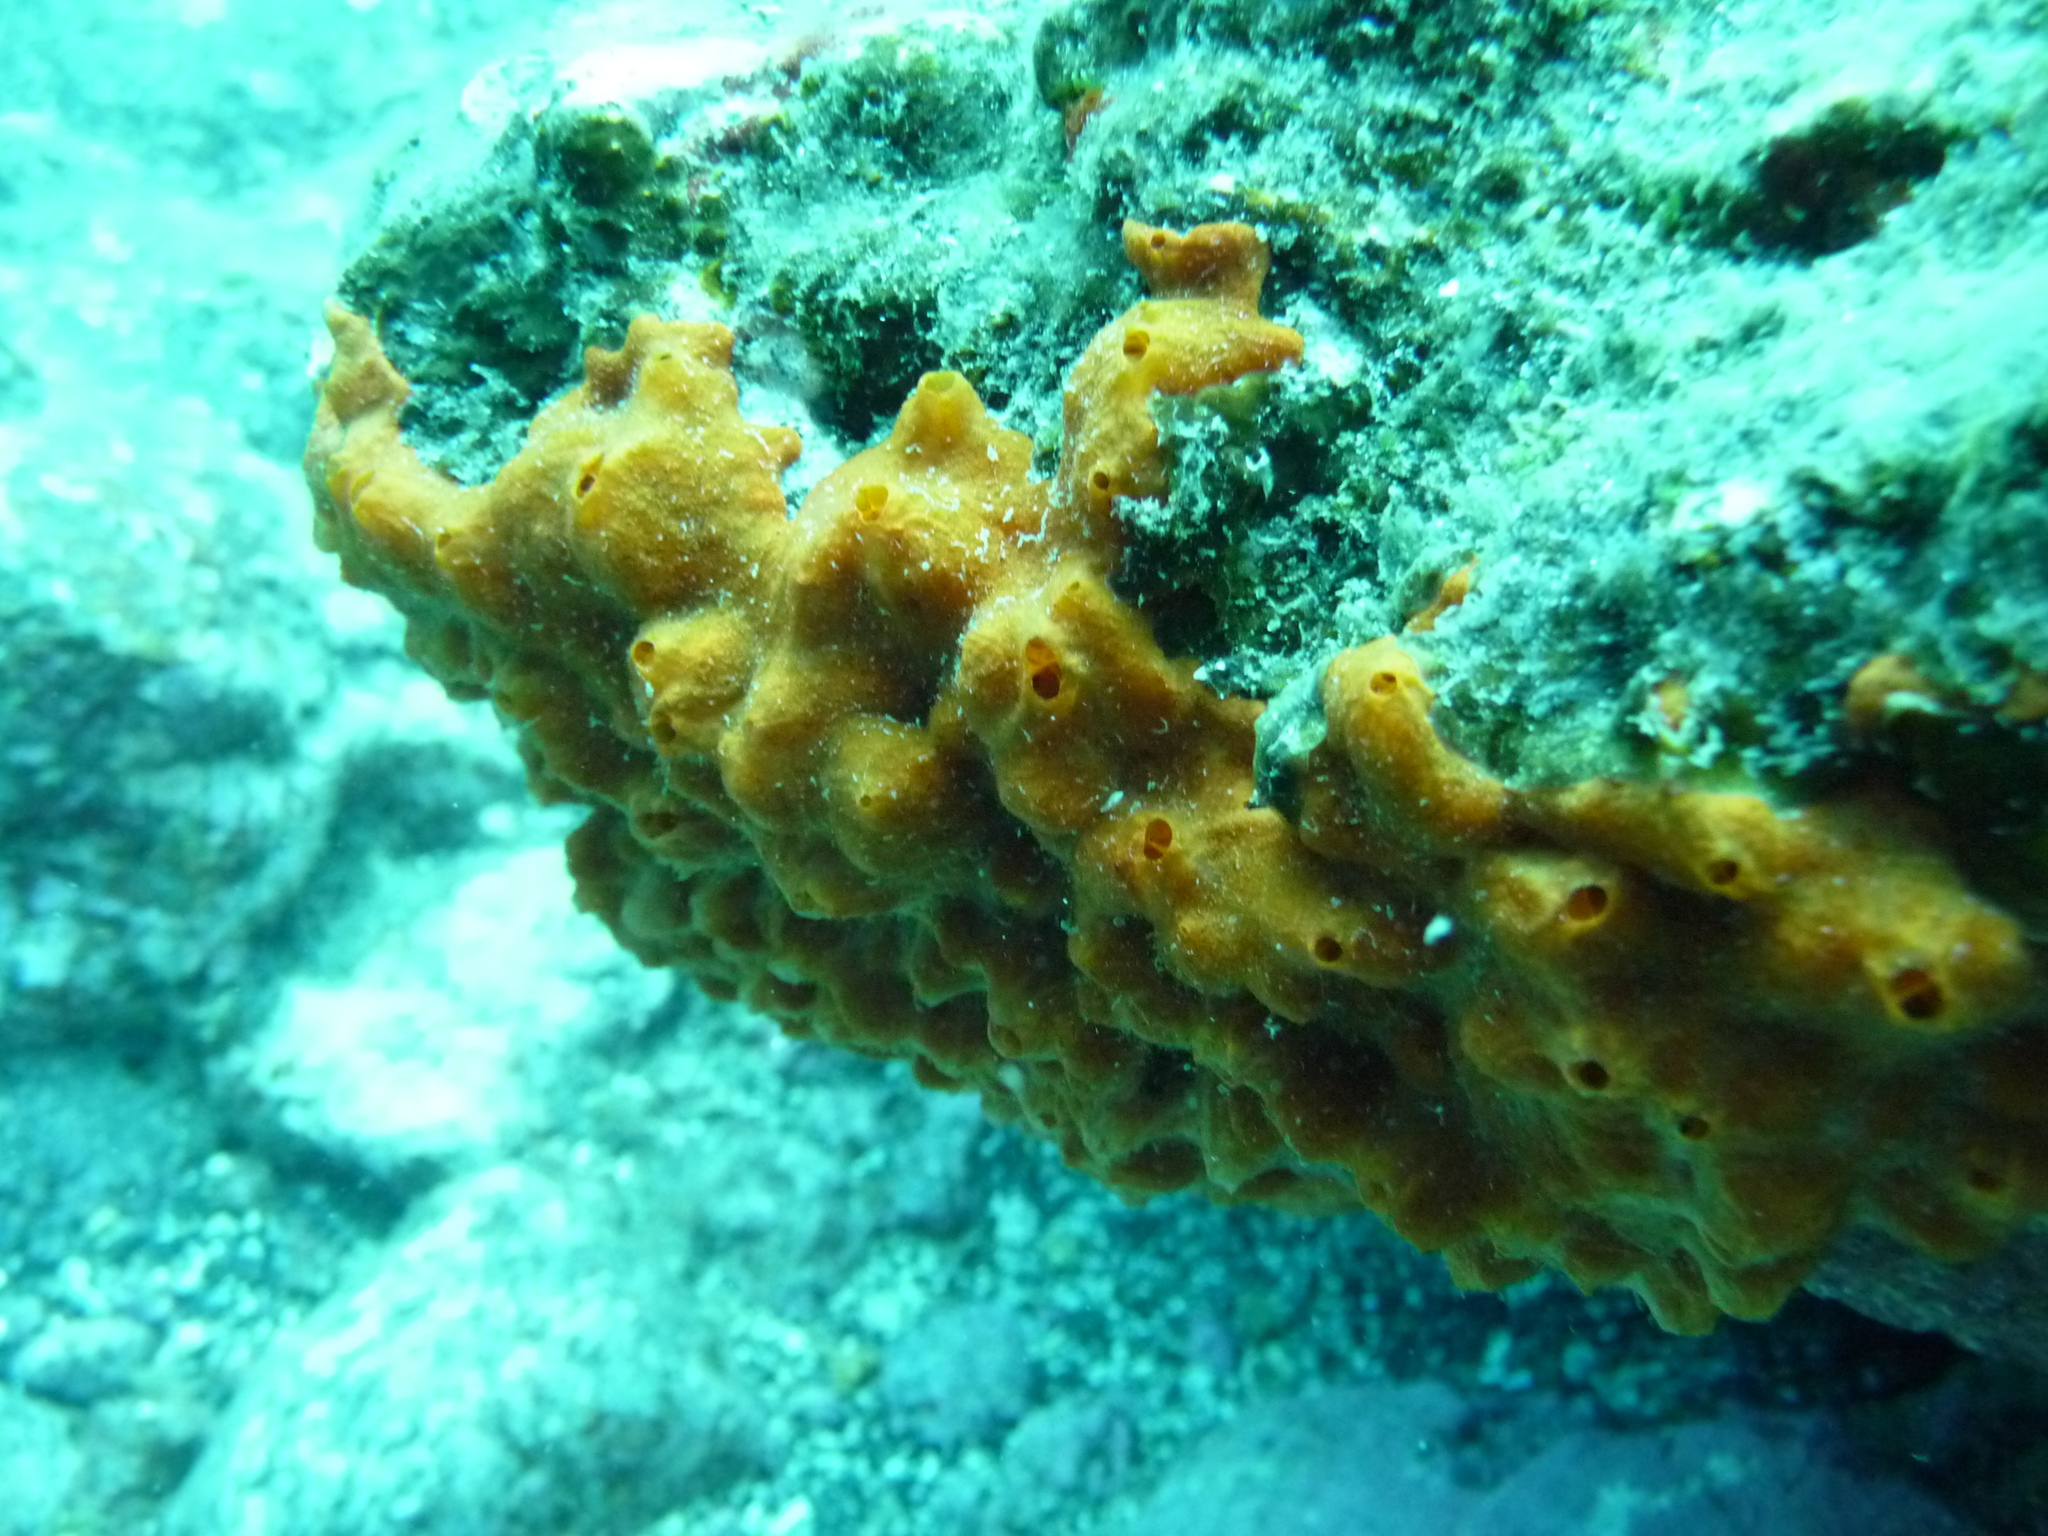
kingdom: Animalia
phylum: Porifera
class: Demospongiae
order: Poecilosclerida
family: Crambeidae
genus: Crambe
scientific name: Crambe crambe
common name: Orange-red encrusting sponge
